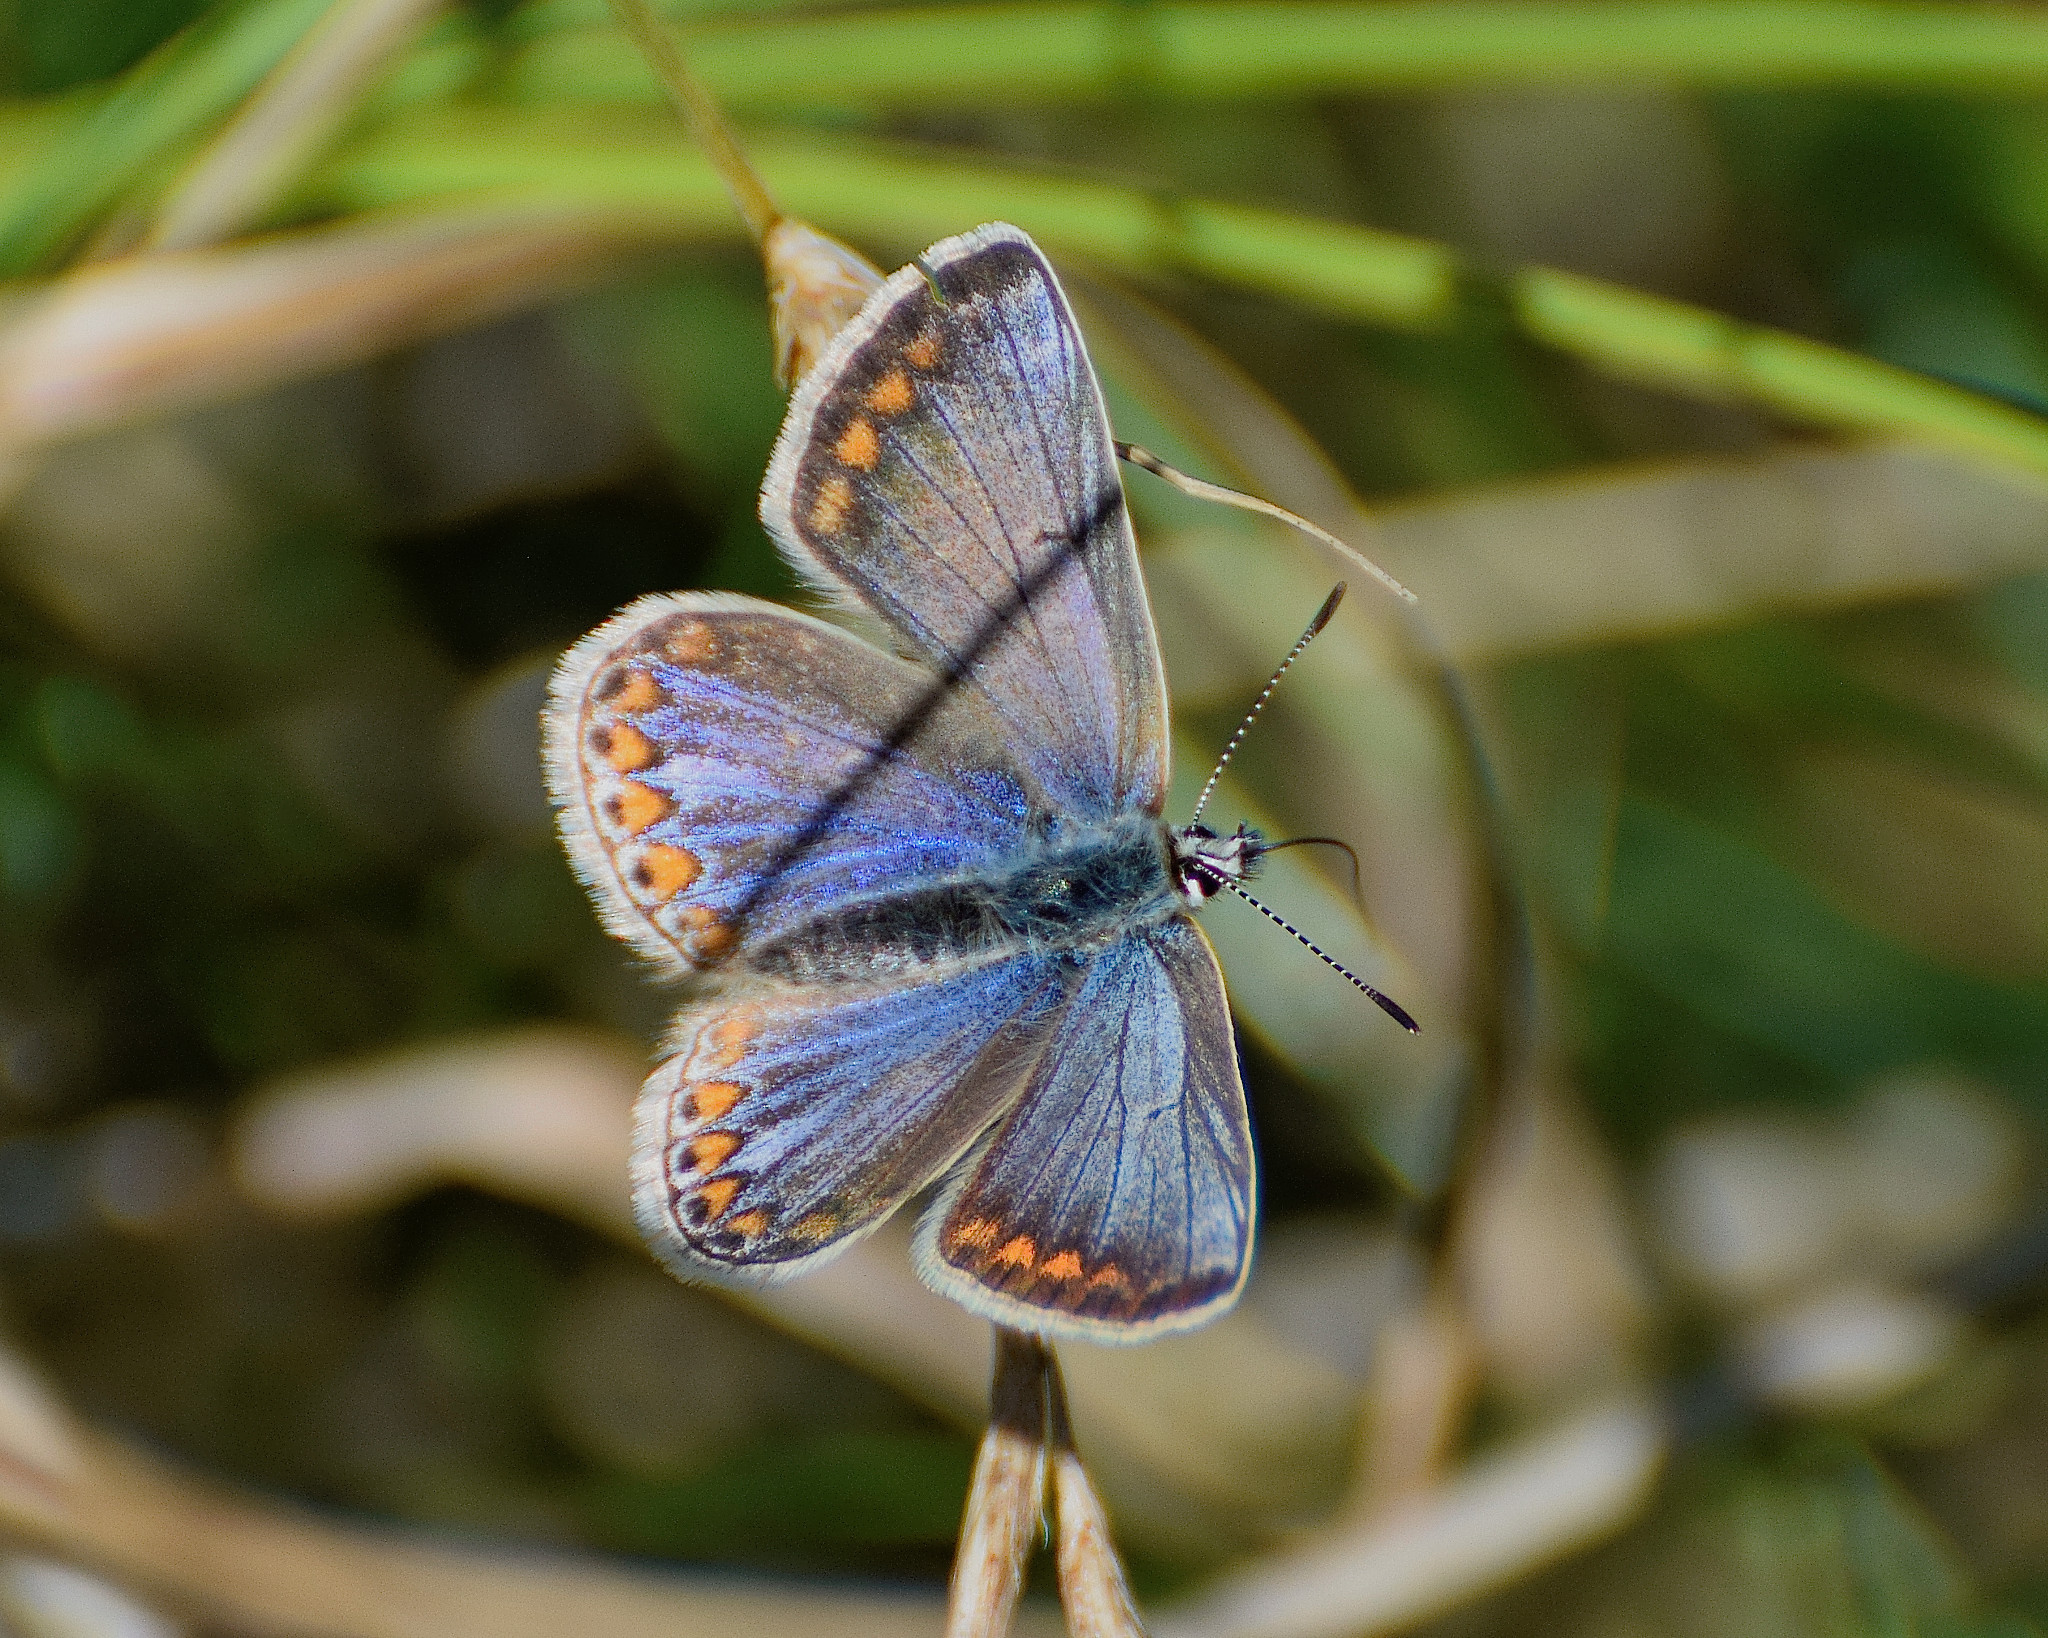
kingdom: Animalia
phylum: Arthropoda
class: Insecta
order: Lepidoptera
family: Lycaenidae
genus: Polyommatus
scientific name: Polyommatus icarus
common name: Common blue
